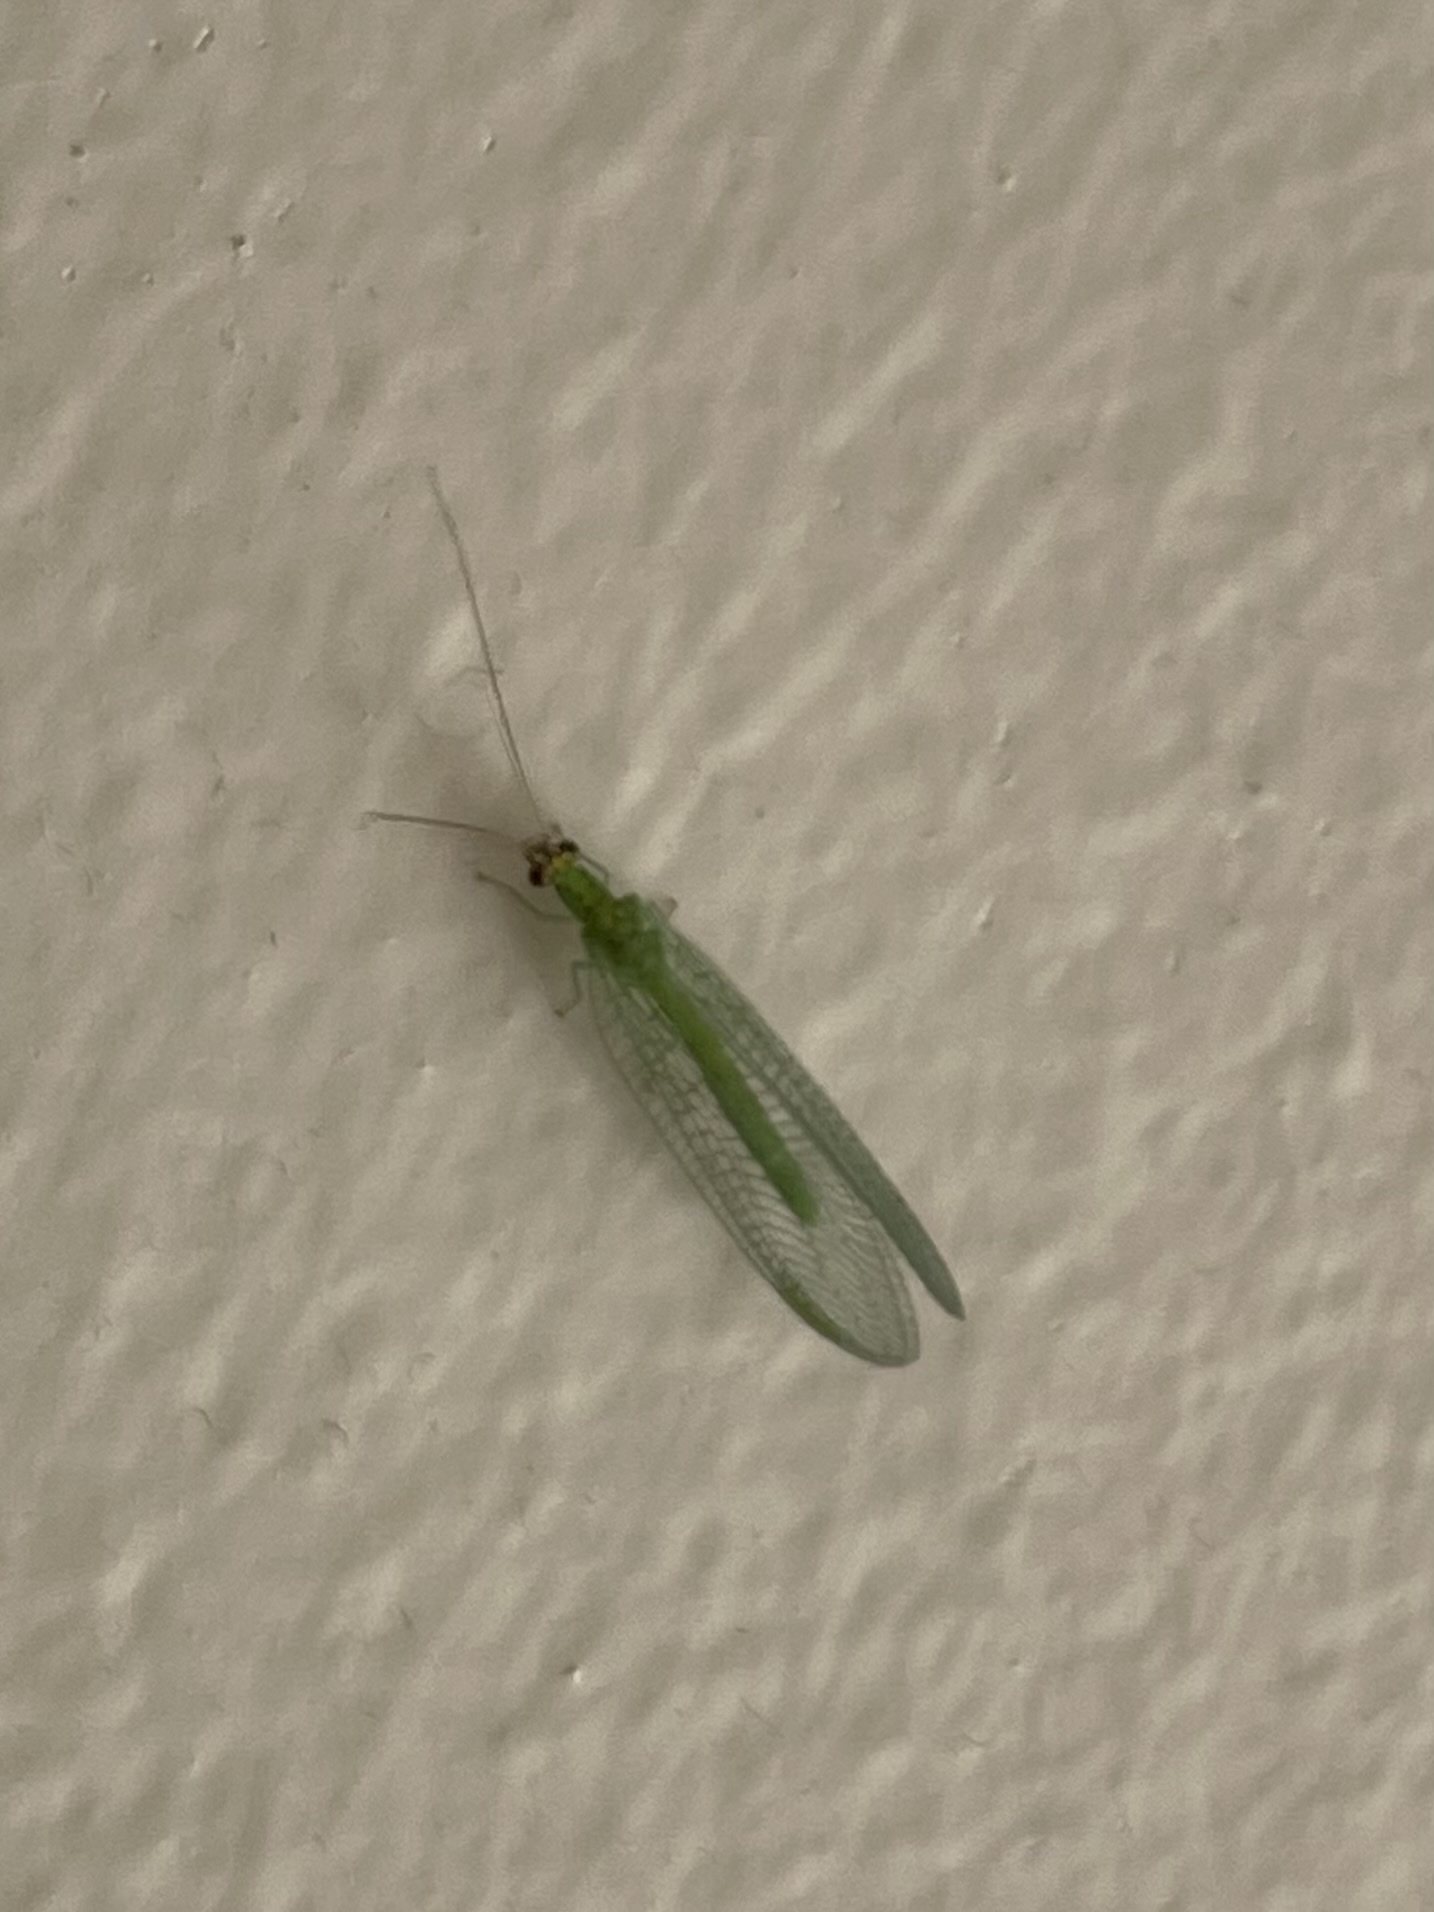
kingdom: Animalia
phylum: Arthropoda
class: Insecta
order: Neuroptera
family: Chrysopidae
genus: Chrysopa
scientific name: Chrysopa oculata
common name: Golden-eyed lacewing
